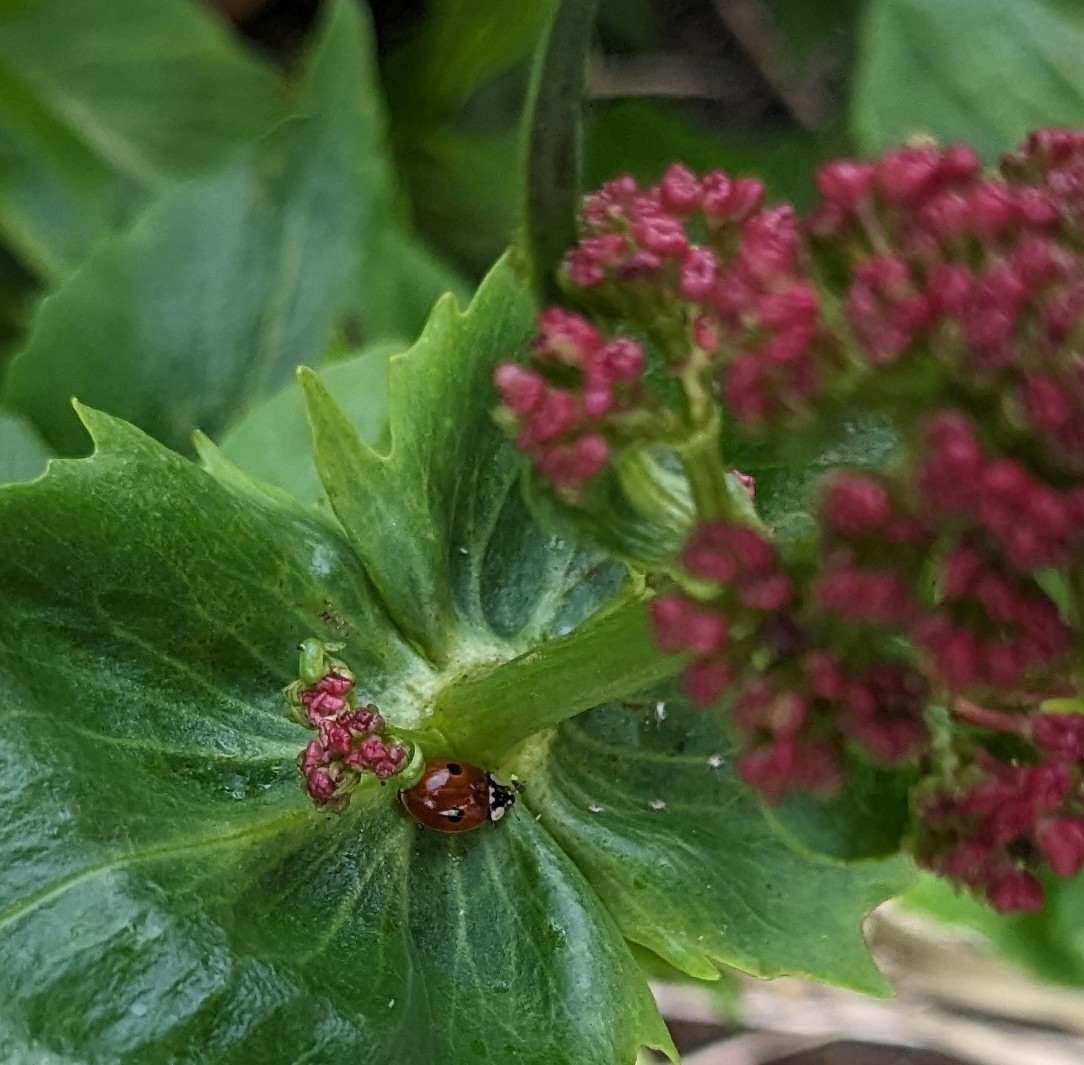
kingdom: Animalia
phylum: Arthropoda
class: Insecta
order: Coleoptera
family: Coccinellidae
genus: Adalia
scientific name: Adalia bipunctata
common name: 2-spot ladybird
